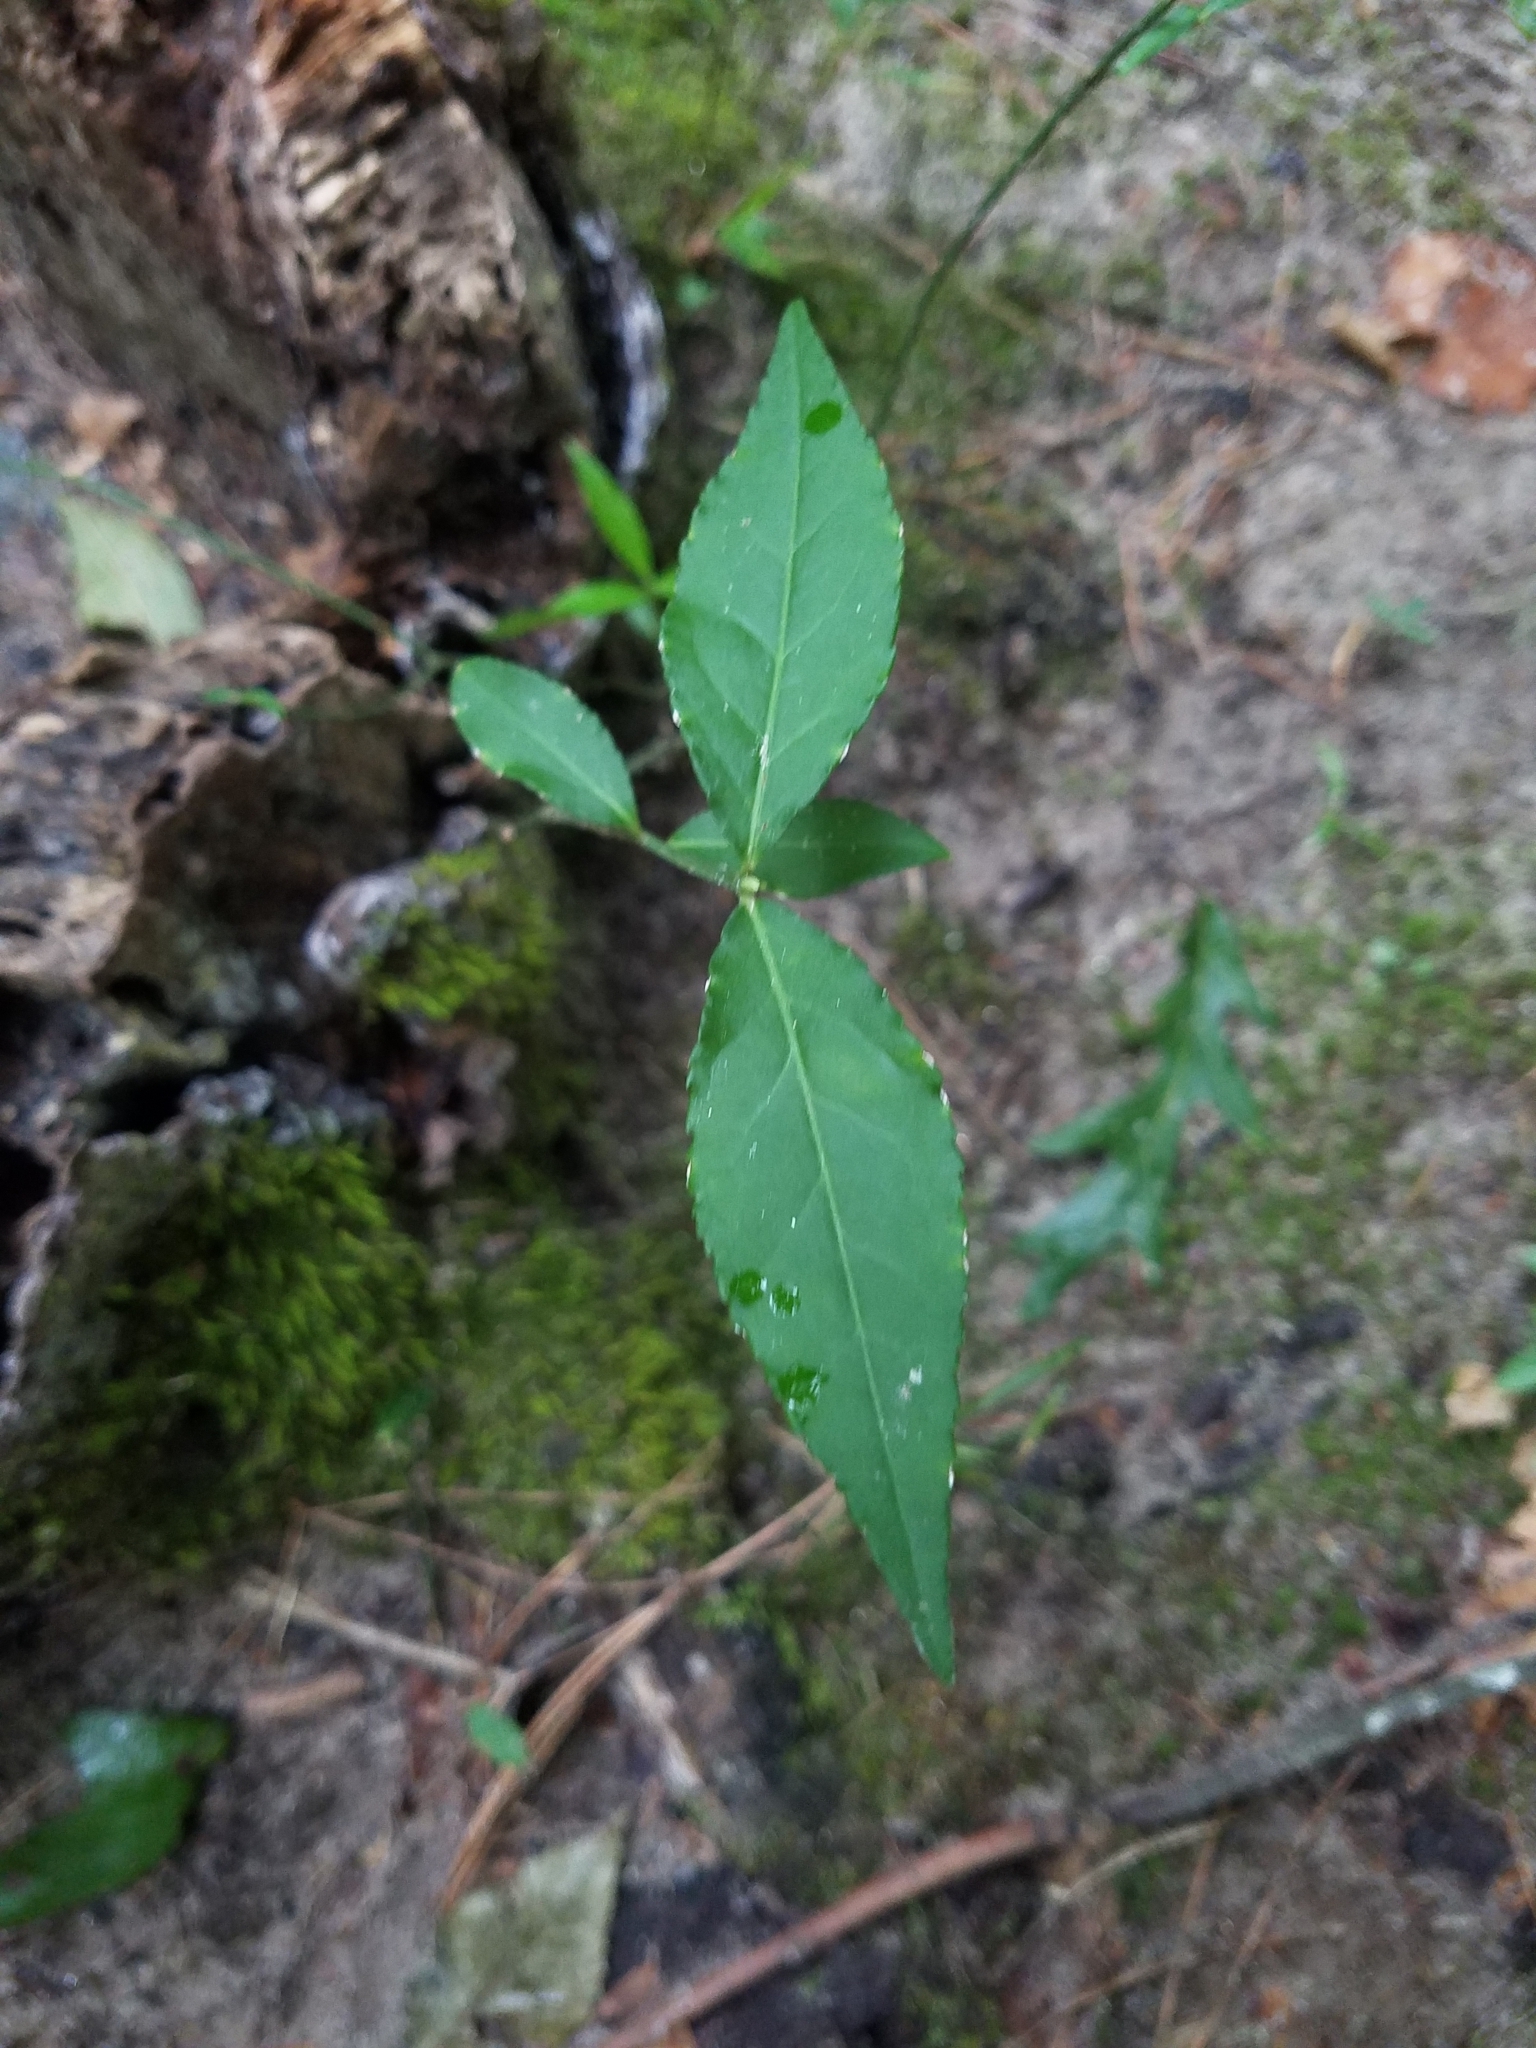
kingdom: Plantae
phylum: Tracheophyta
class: Magnoliopsida
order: Celastrales
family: Celastraceae
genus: Euonymus
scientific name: Euonymus americanus
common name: Bursting-heart
